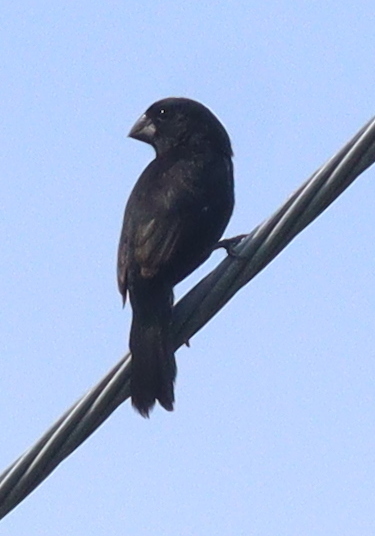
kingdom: Animalia
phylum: Chordata
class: Aves
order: Passeriformes
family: Thraupidae
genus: Sporophila
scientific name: Sporophila funerea
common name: Thick-billed seed-finch
